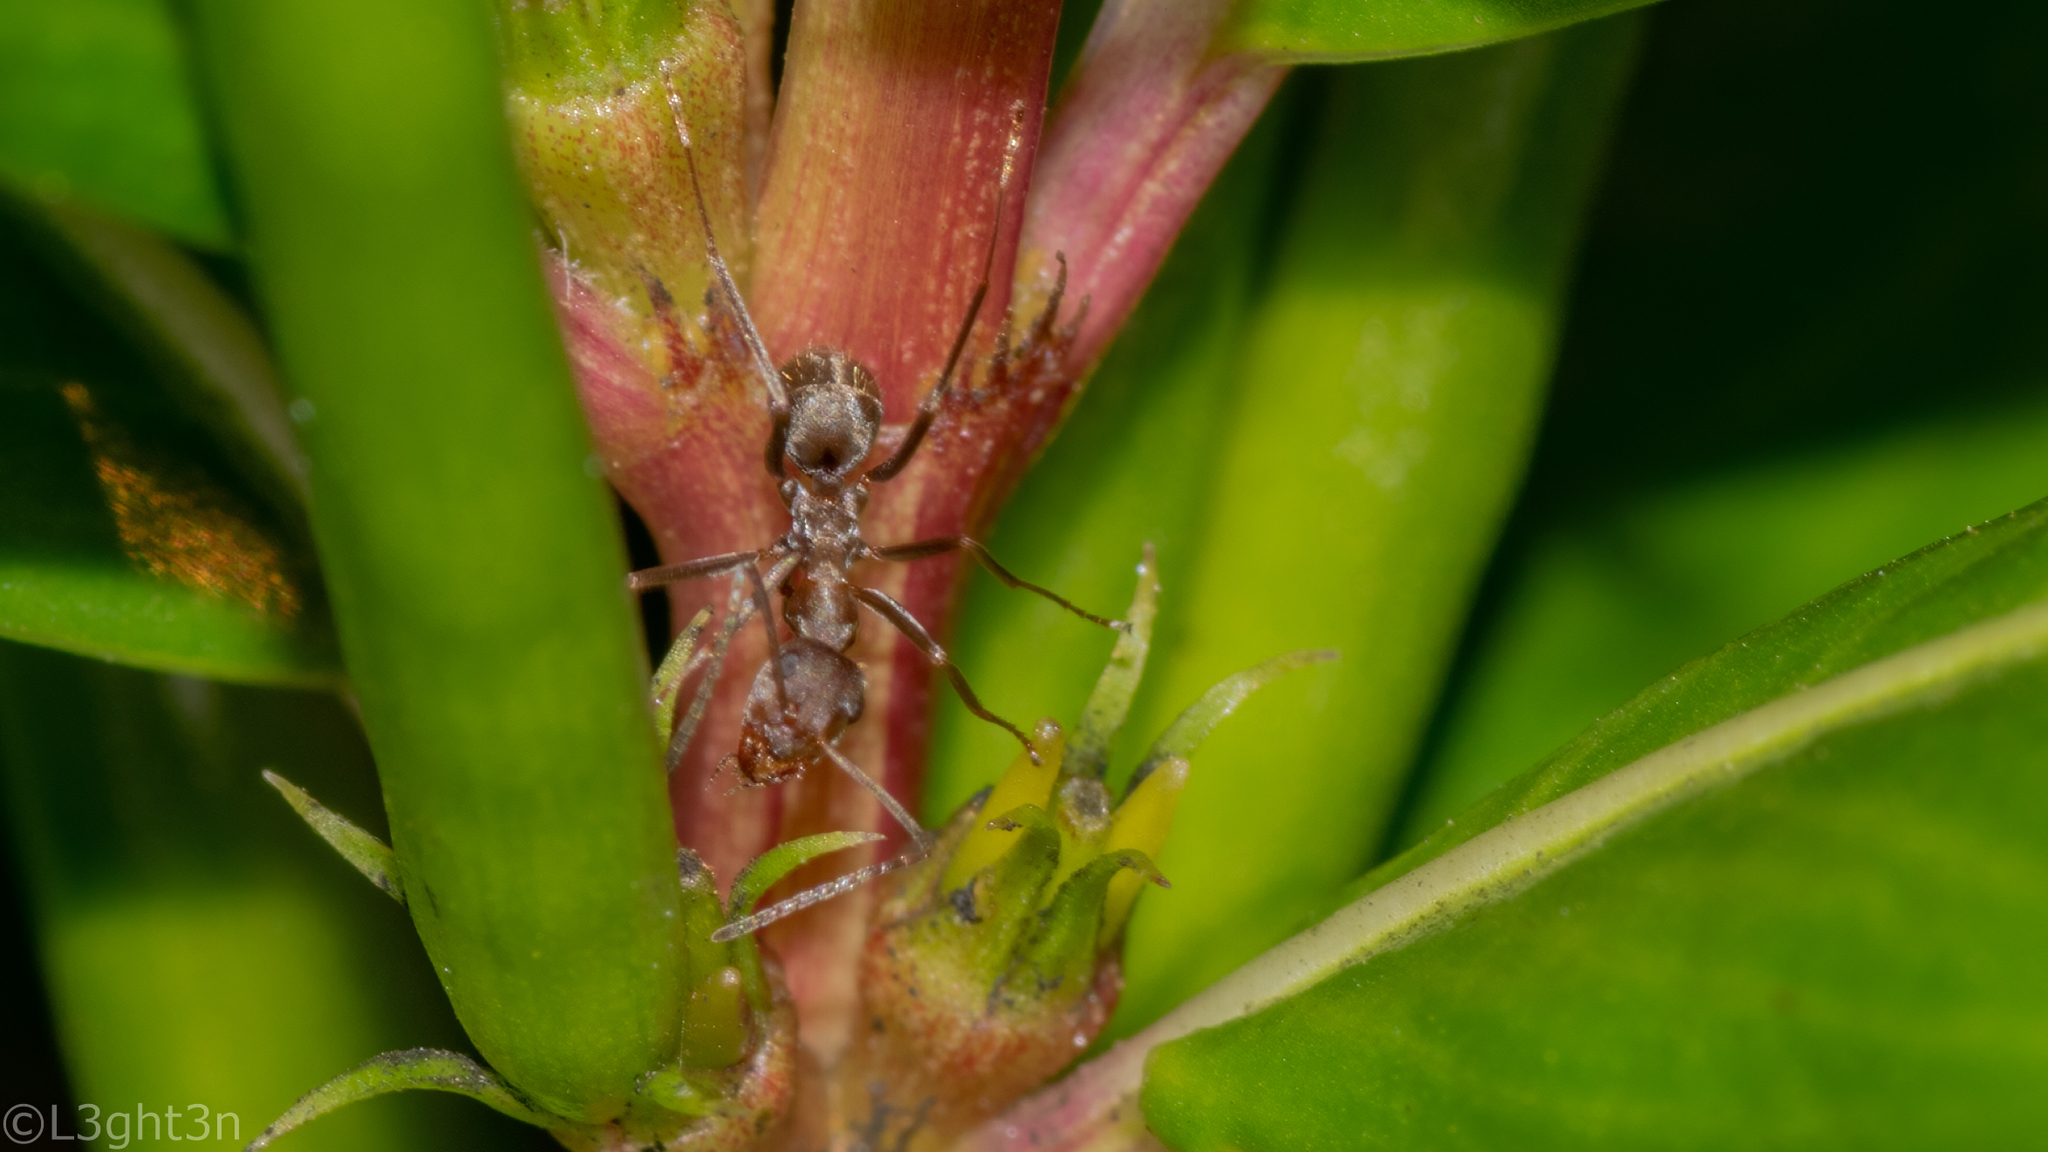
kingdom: Animalia
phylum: Arthropoda
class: Insecta
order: Hymenoptera
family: Formicidae
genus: Anoplolepis
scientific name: Anoplolepis custodiens
